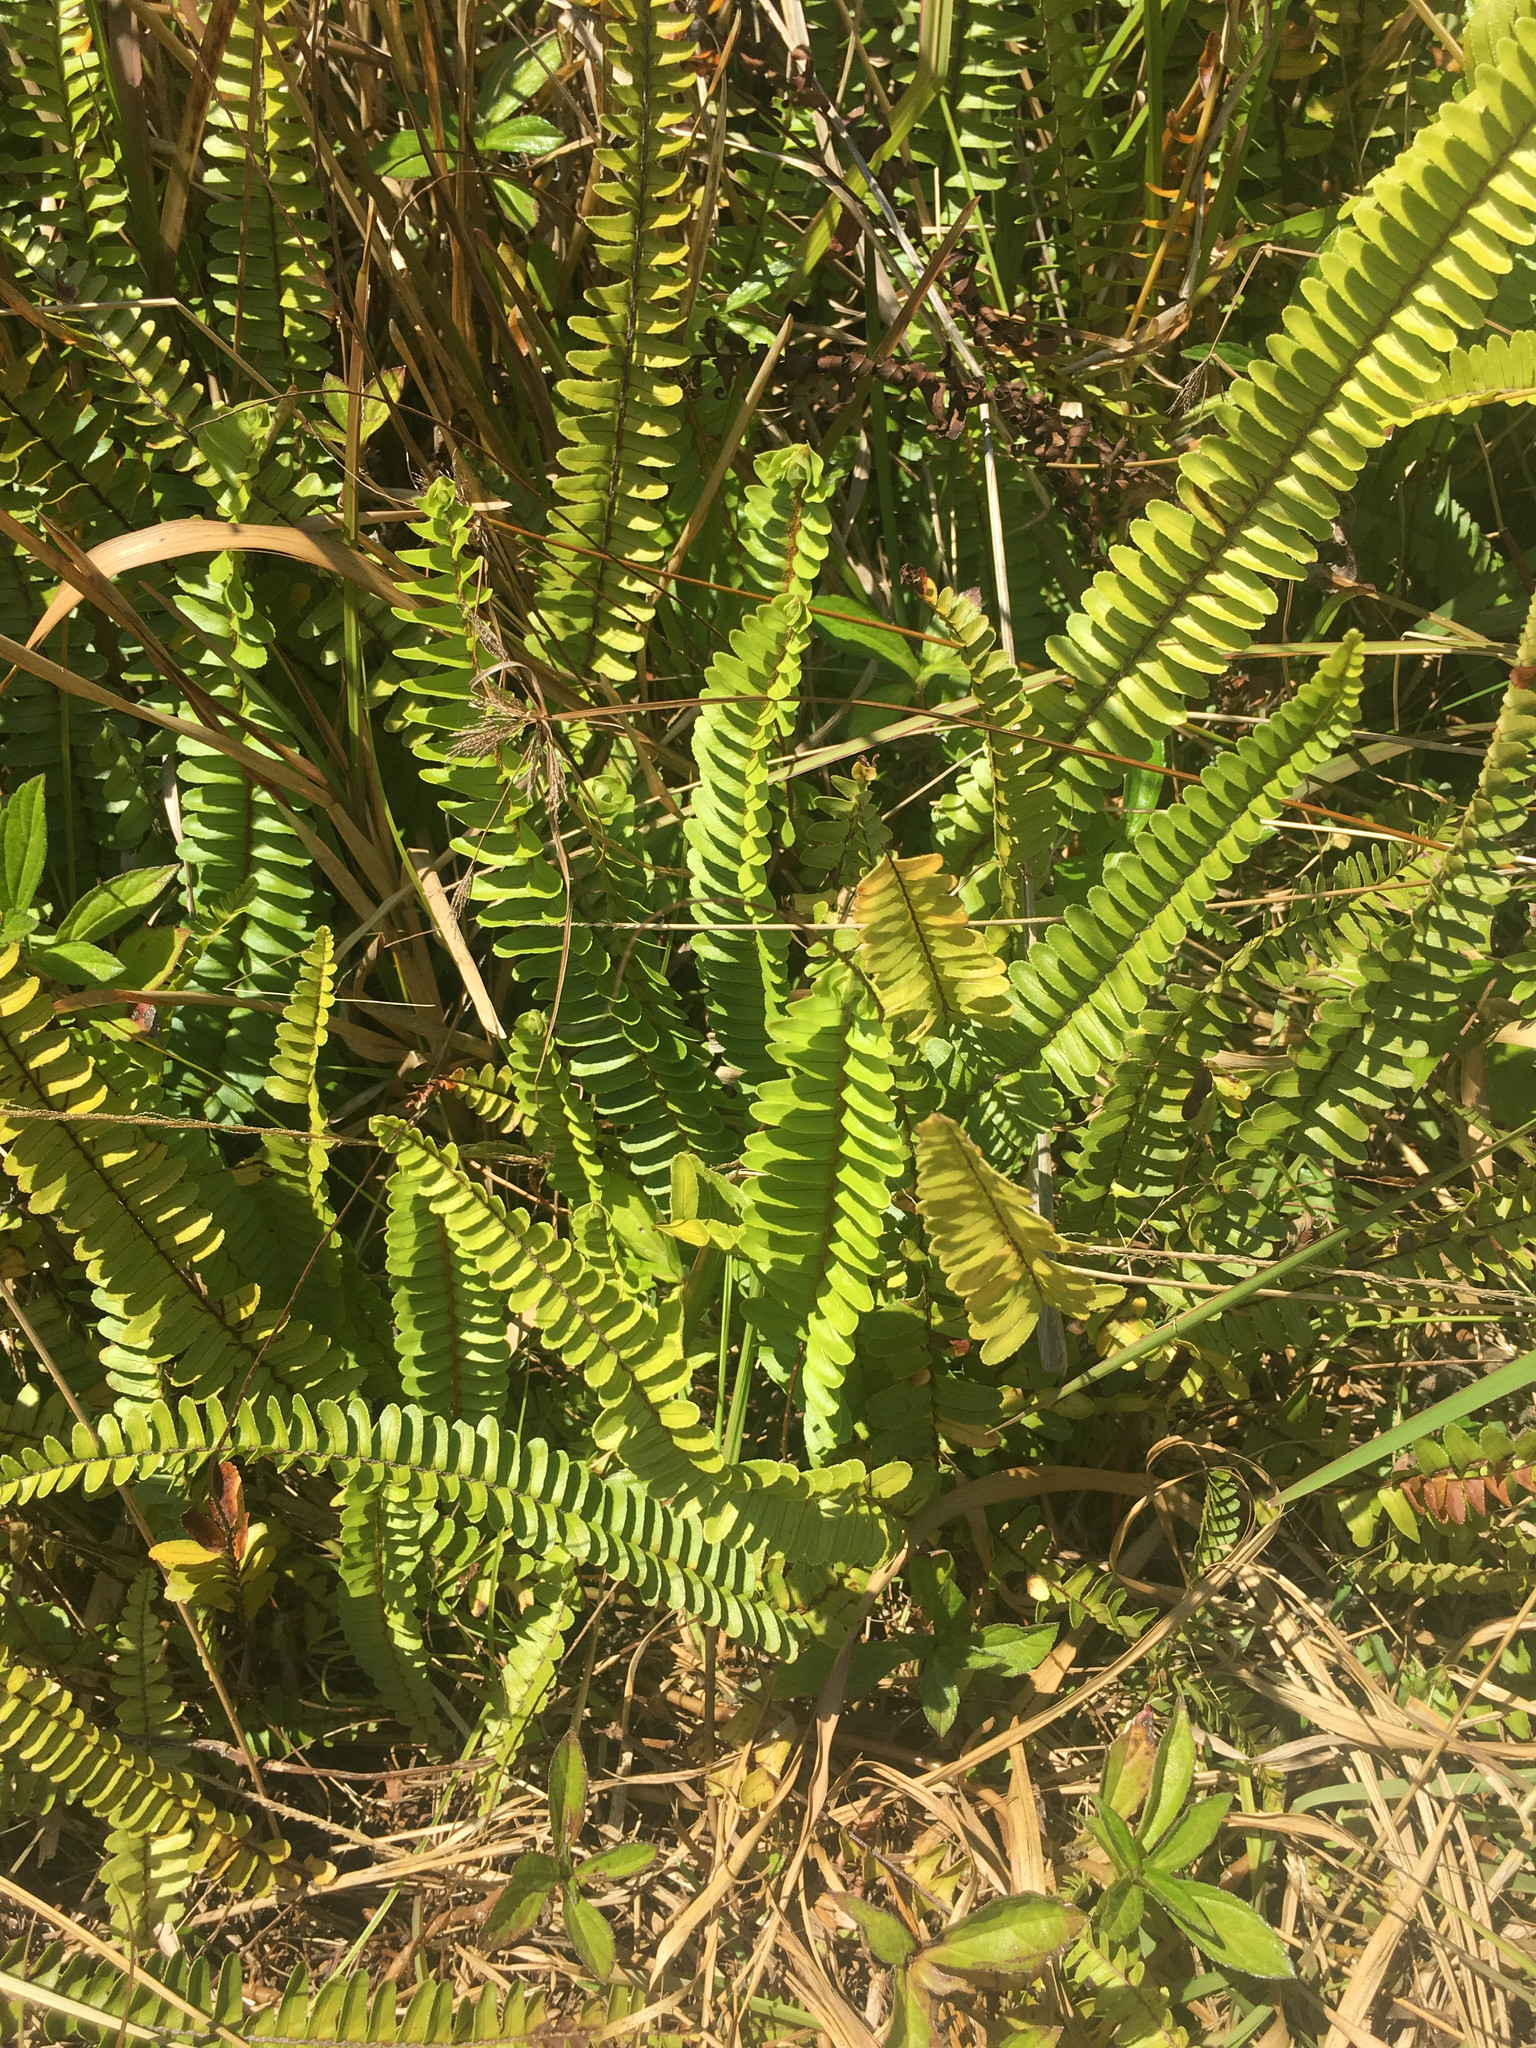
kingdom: Plantae
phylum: Tracheophyta
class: Polypodiopsida
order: Polypodiales
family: Nephrolepidaceae
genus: Nephrolepis
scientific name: Nephrolepis cordifolia
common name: Narrow swordfern
